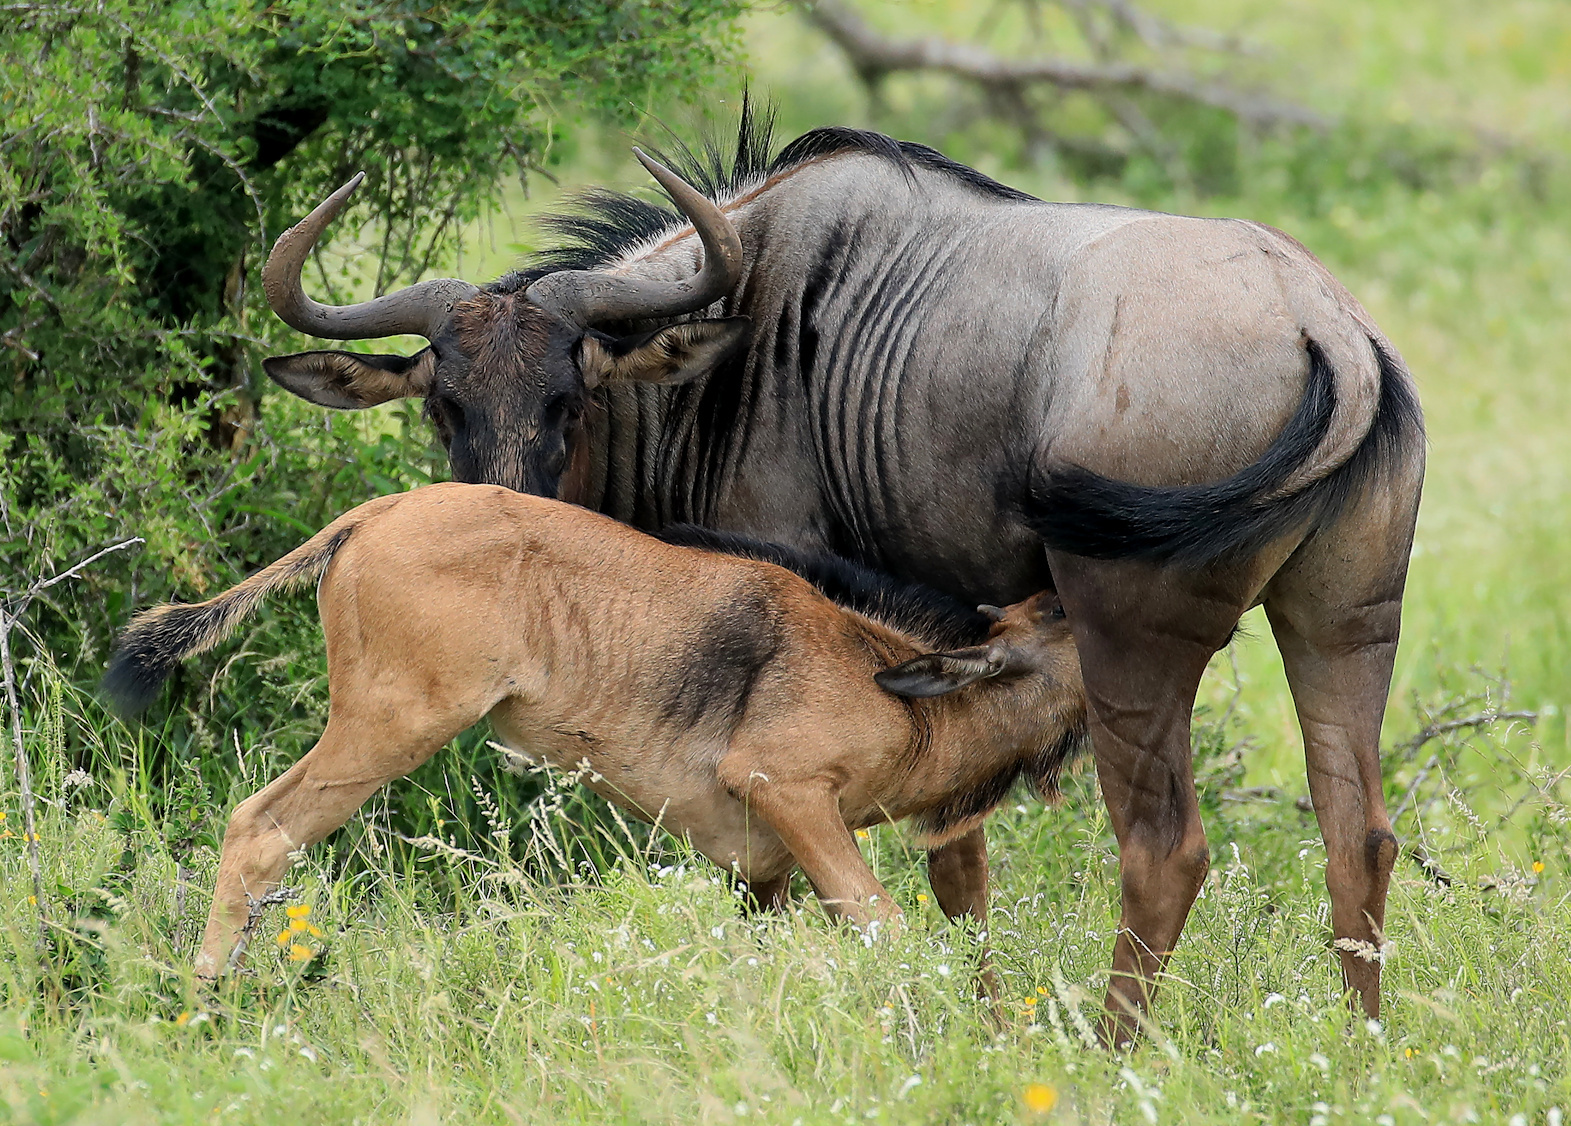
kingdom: Animalia
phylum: Chordata
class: Mammalia
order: Artiodactyla
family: Bovidae
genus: Connochaetes
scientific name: Connochaetes taurinus
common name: Blue wildebeest
